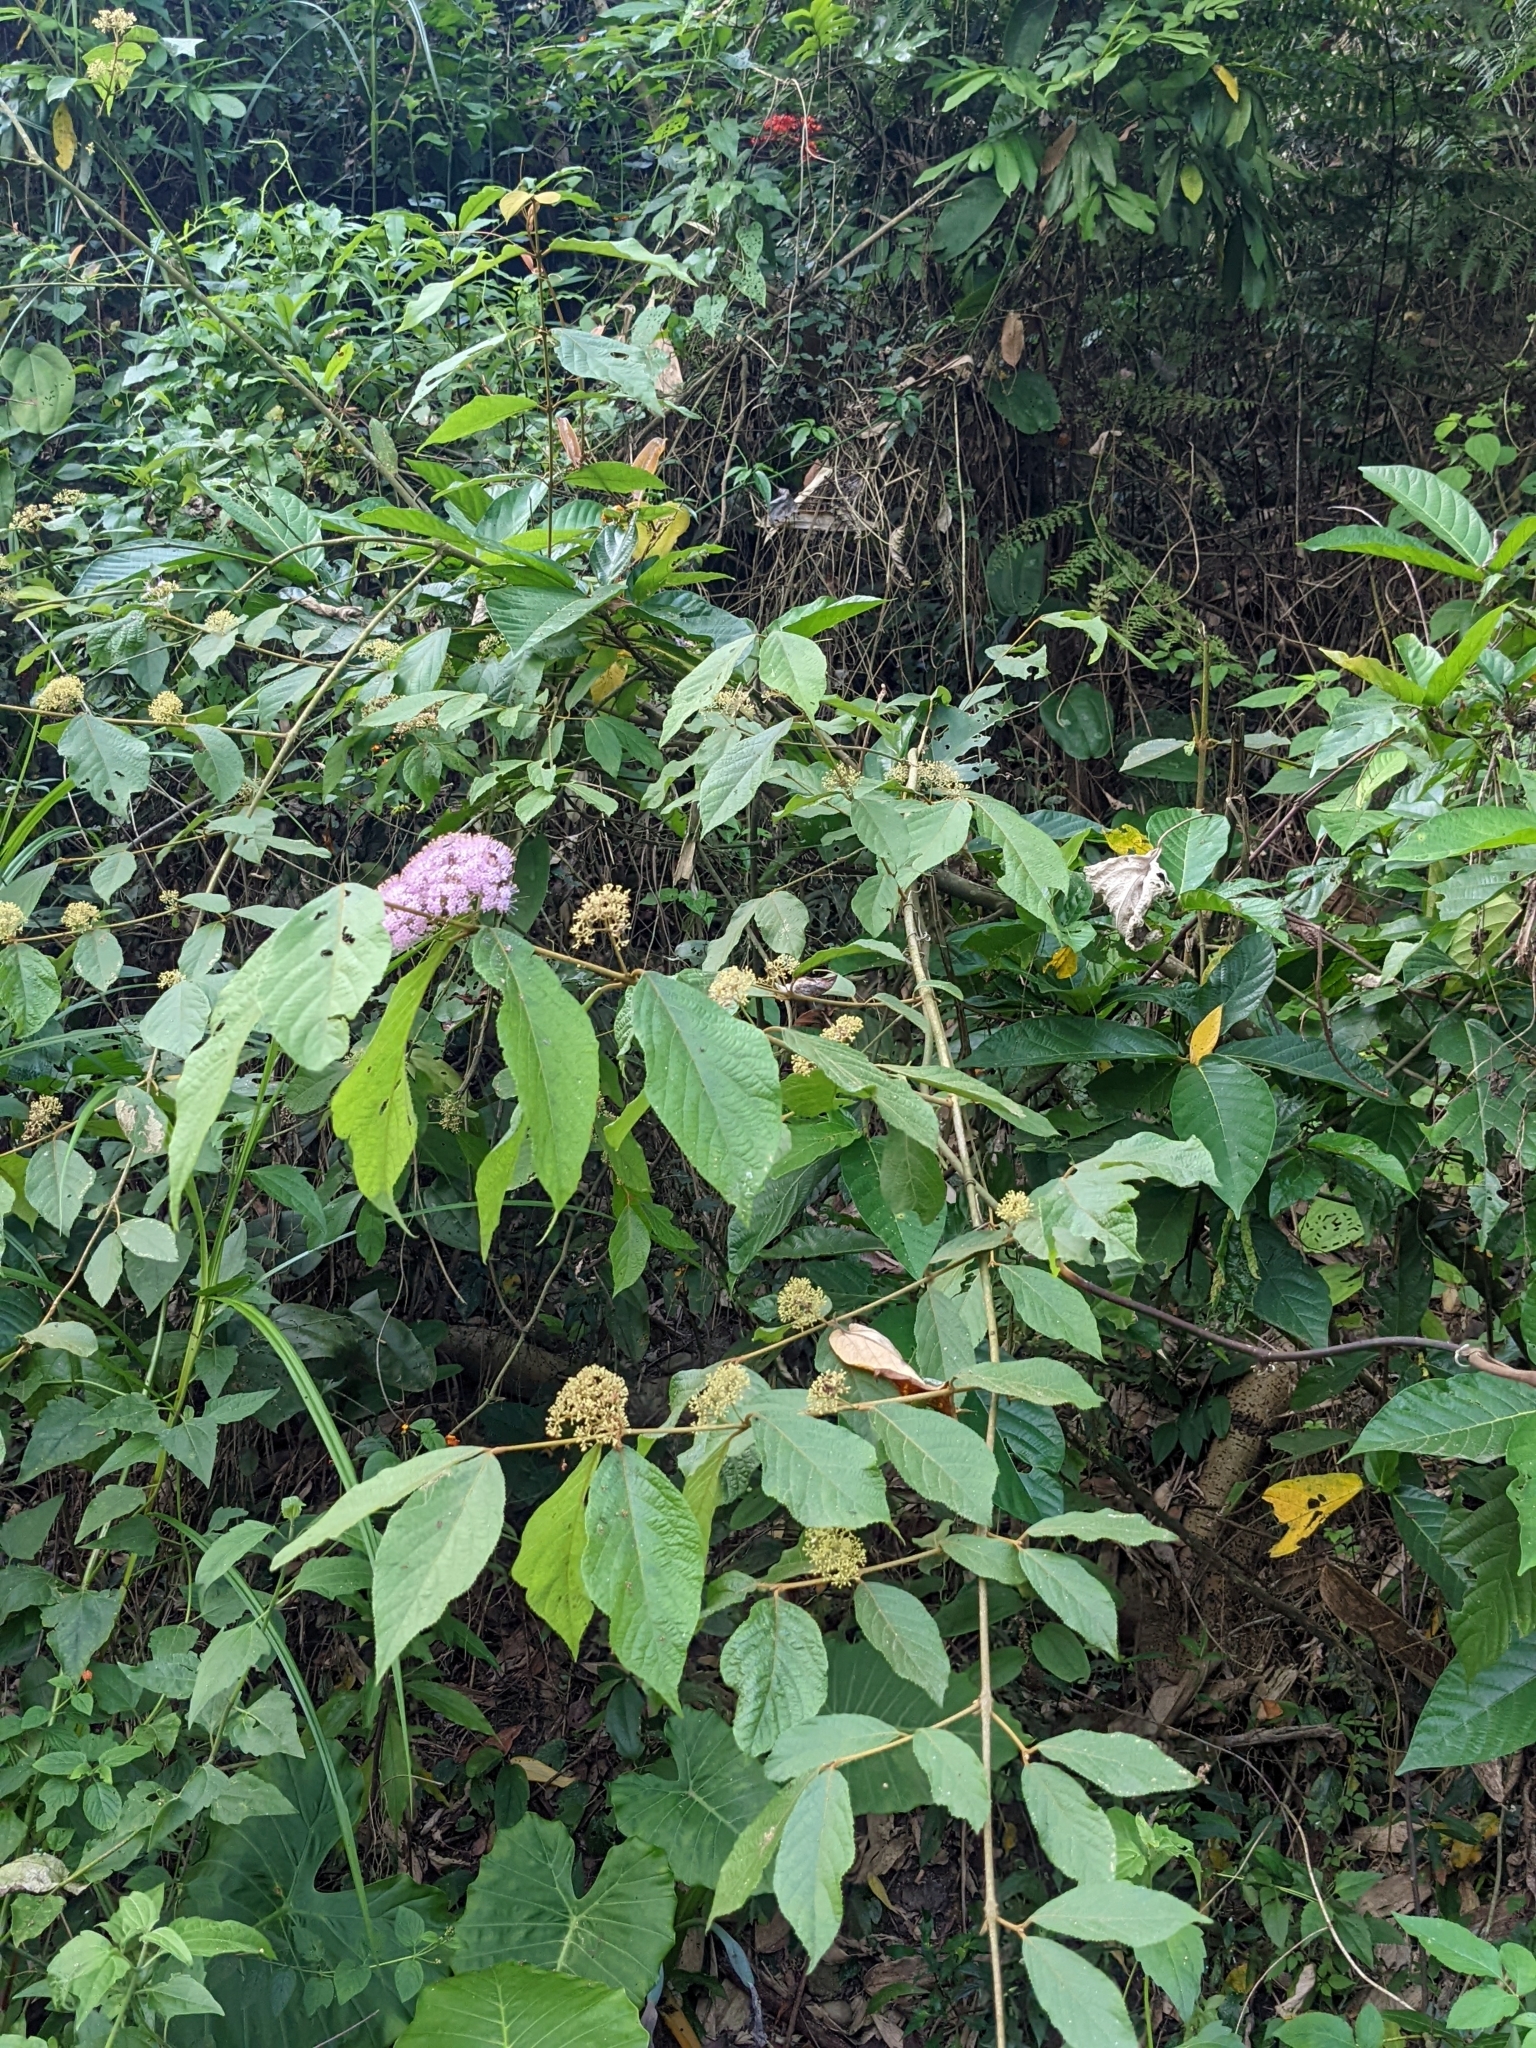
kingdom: Plantae
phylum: Tracheophyta
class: Magnoliopsida
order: Lamiales
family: Lamiaceae
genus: Callicarpa
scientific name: Callicarpa pedunculata
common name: Velvetleaf
